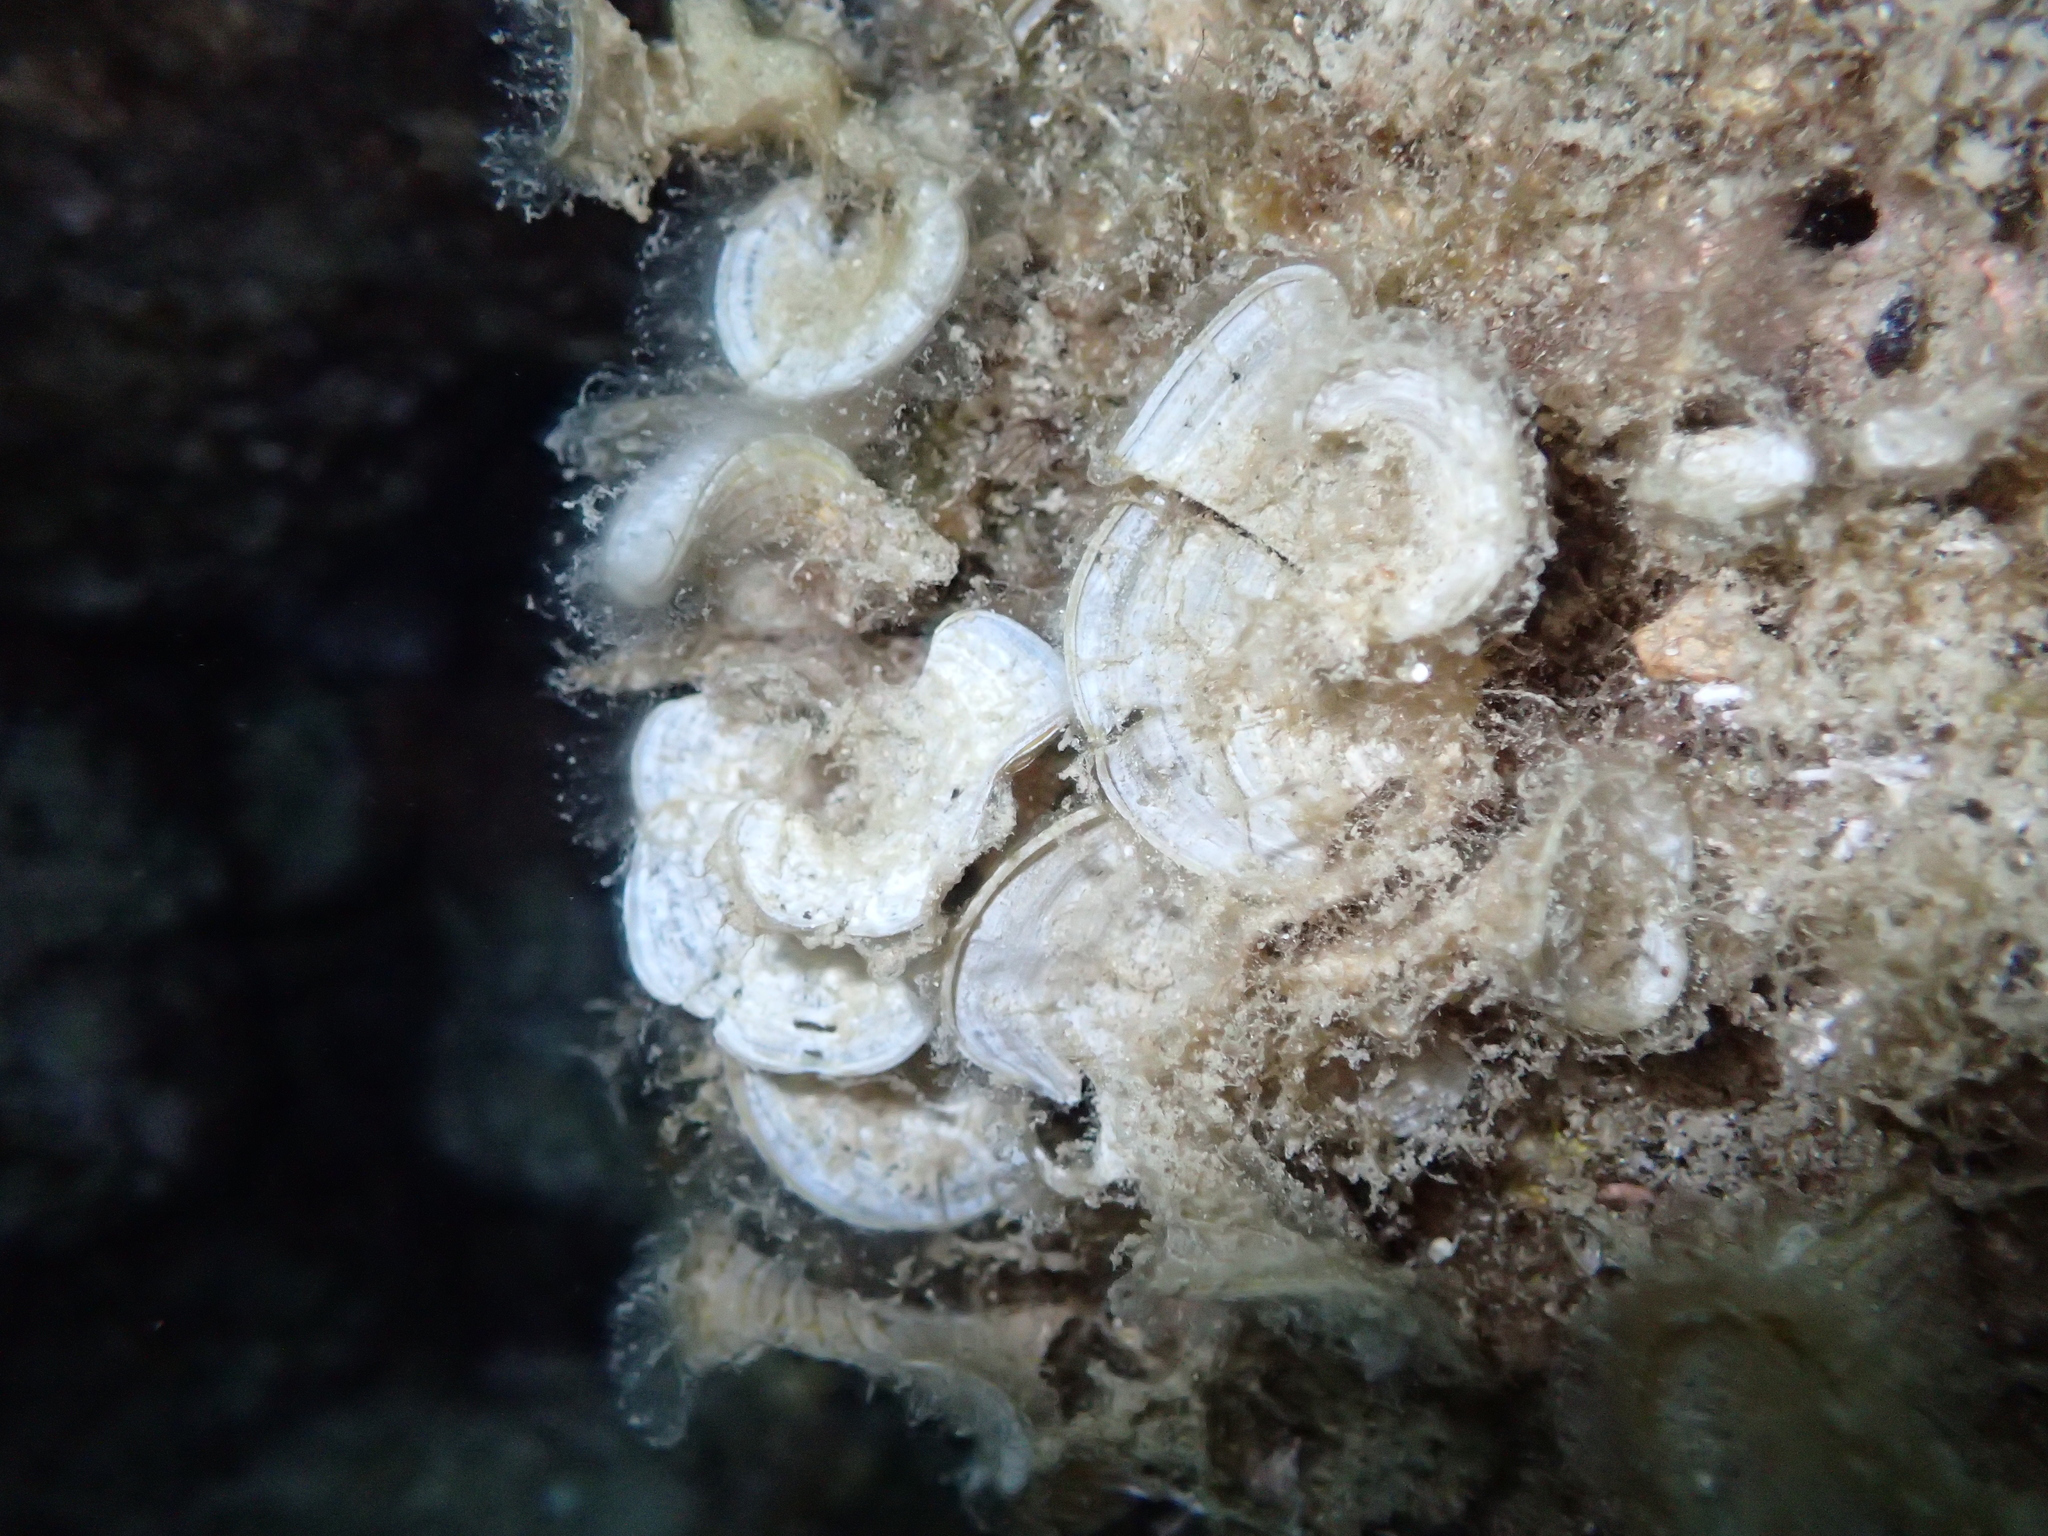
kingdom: Chromista
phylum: Ochrophyta
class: Phaeophyceae
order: Dictyotales
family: Dictyotaceae
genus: Padina
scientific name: Padina
